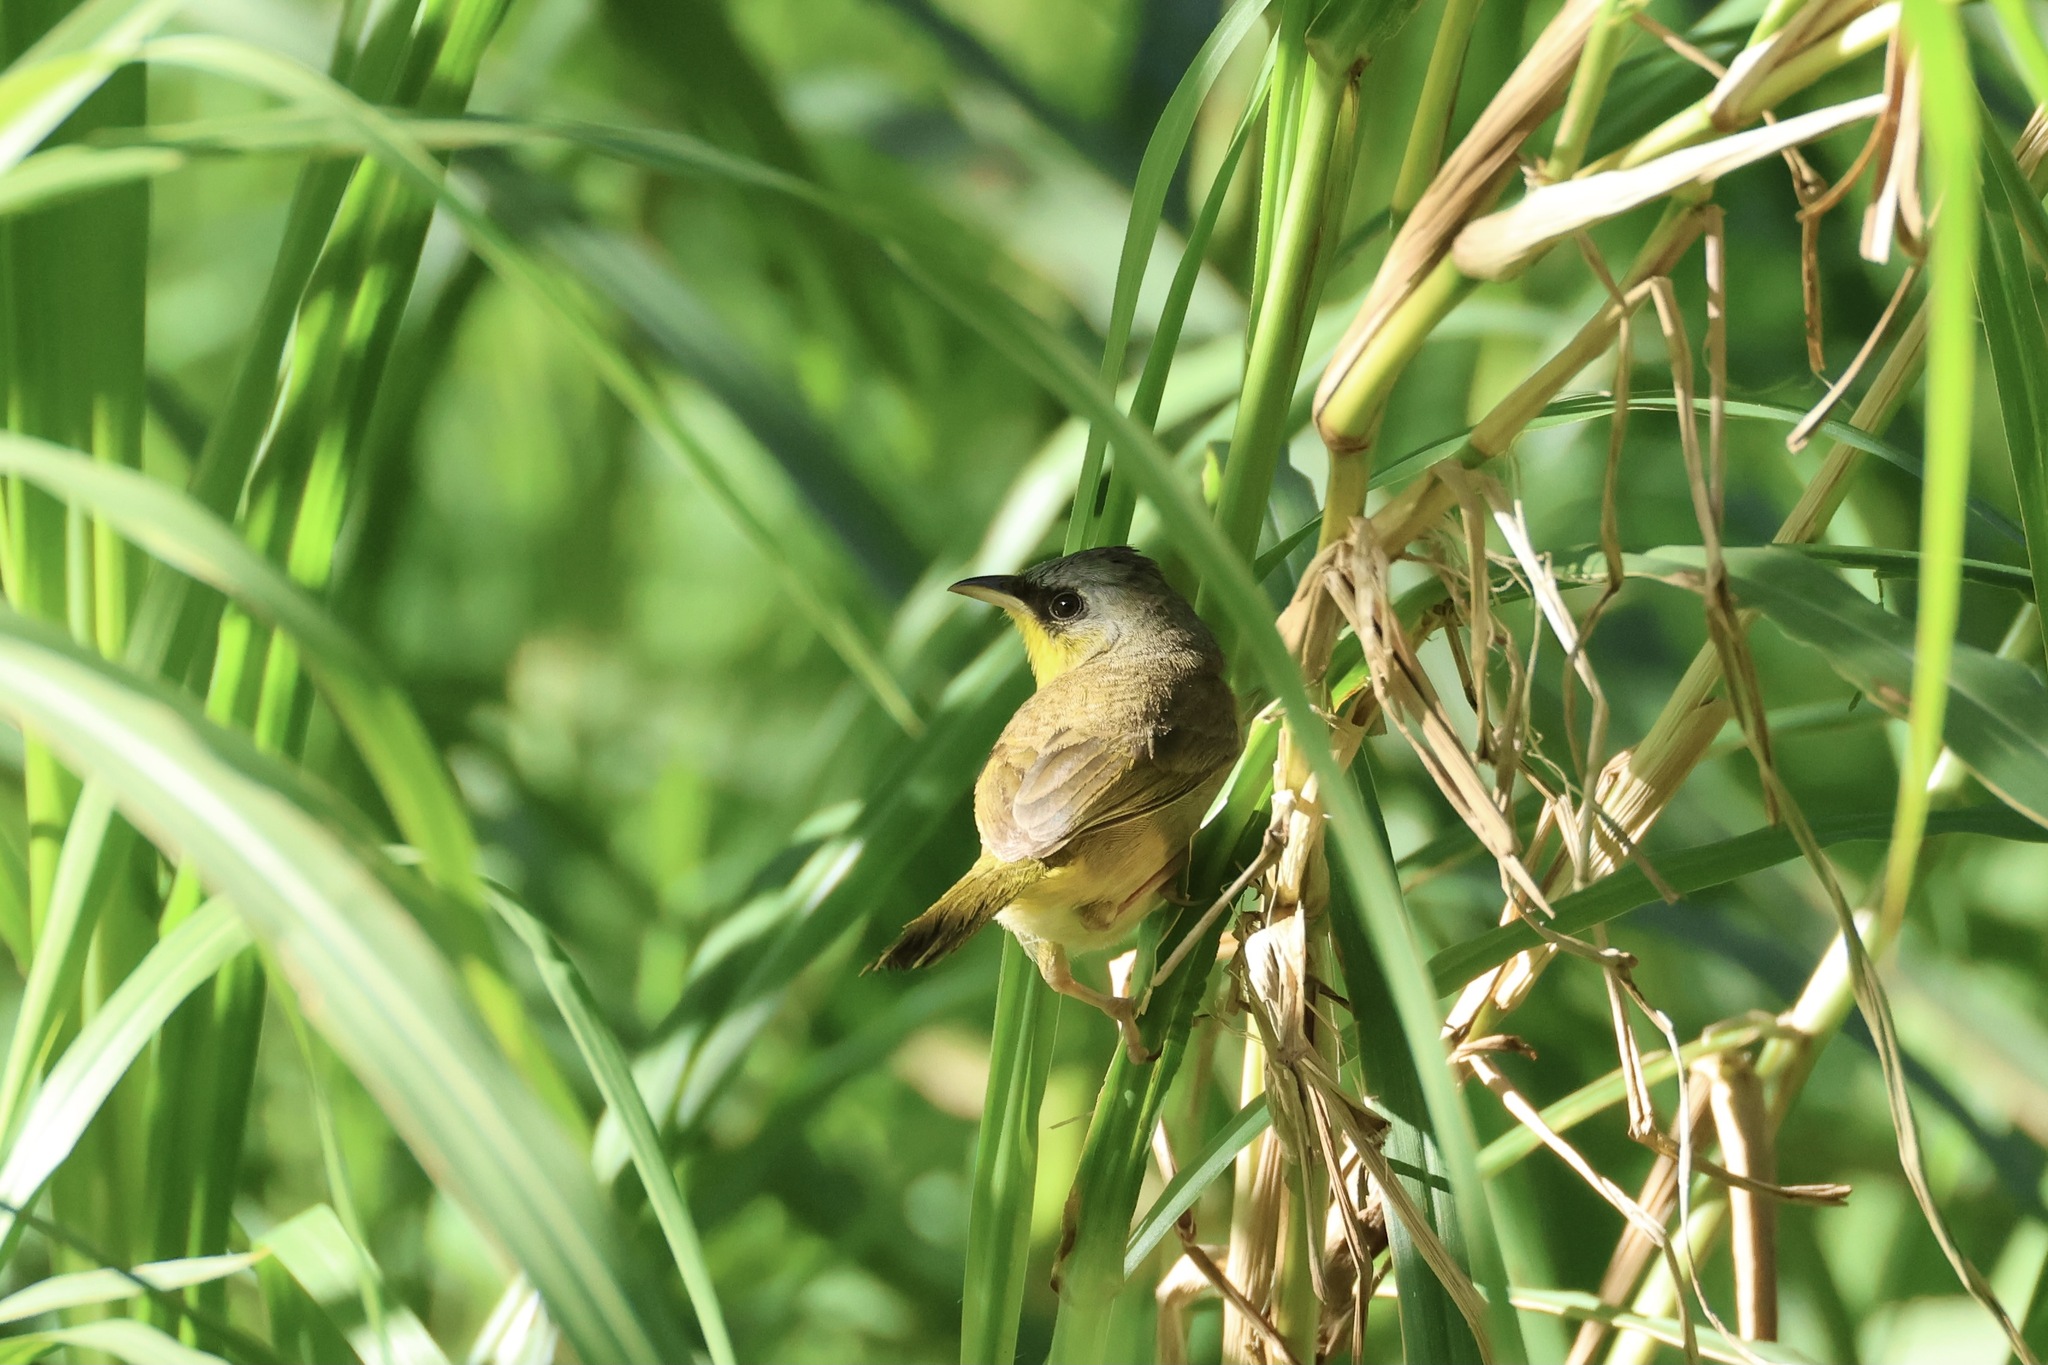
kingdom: Animalia
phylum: Chordata
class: Aves
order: Passeriformes
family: Parulidae
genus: Geothlypis
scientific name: Geothlypis poliocephala
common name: Gray-crowned yellowthroat
